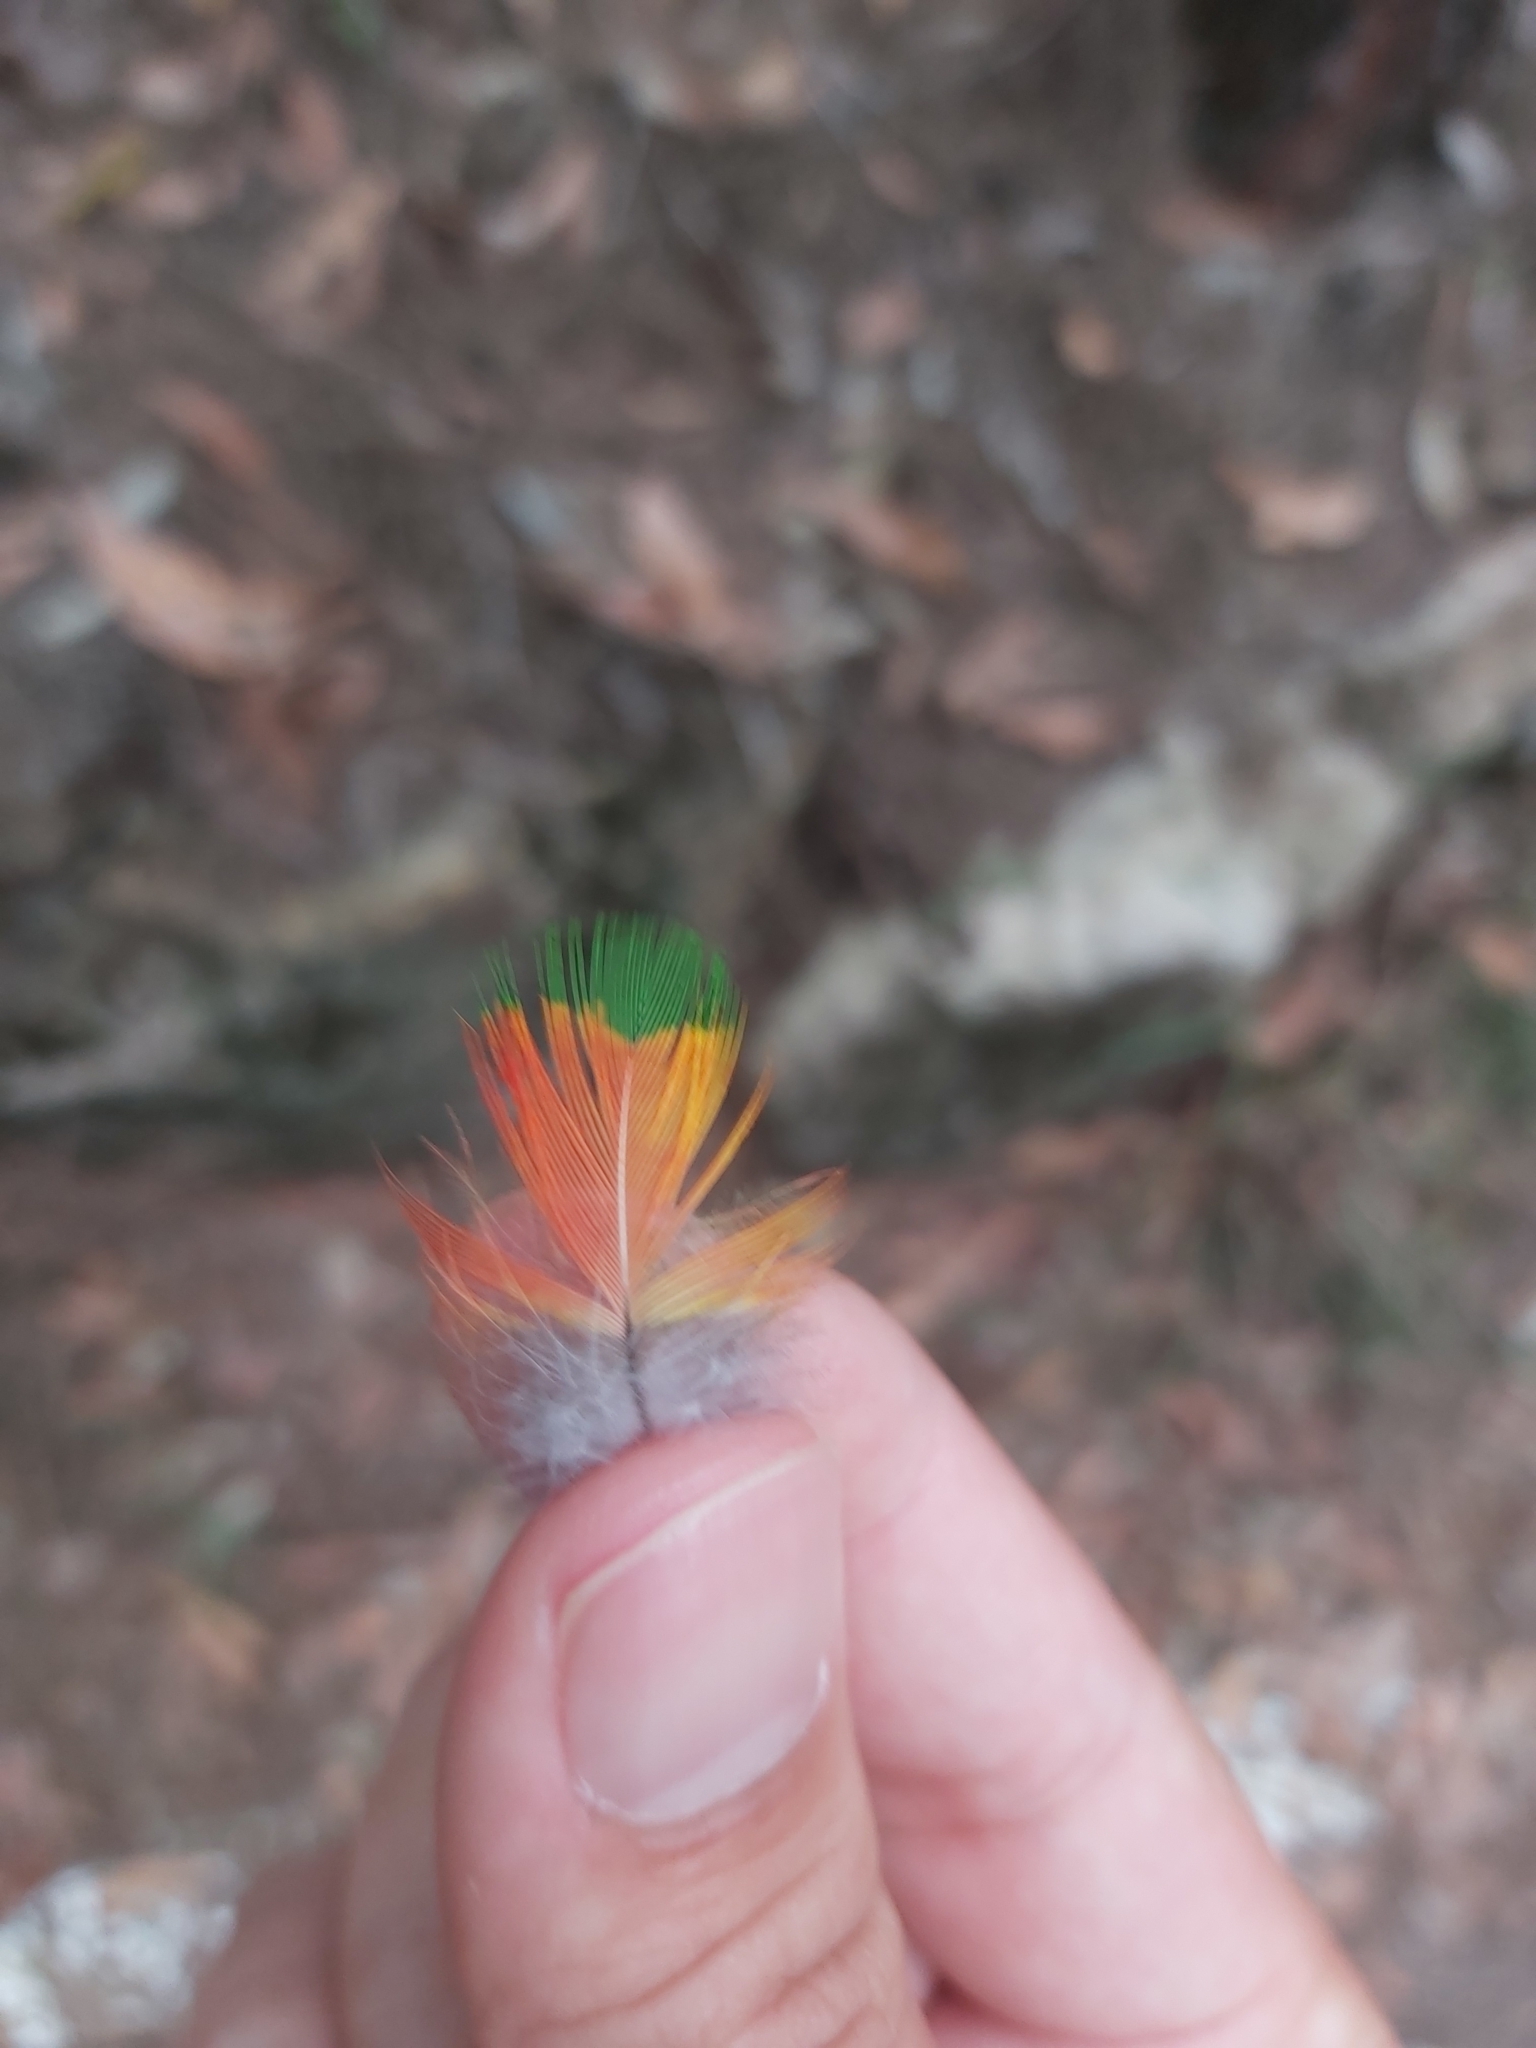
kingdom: Animalia
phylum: Chordata
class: Aves
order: Psittaciformes
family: Psittacidae
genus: Trichoglossus
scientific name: Trichoglossus haematodus
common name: Coconut lorikeet
